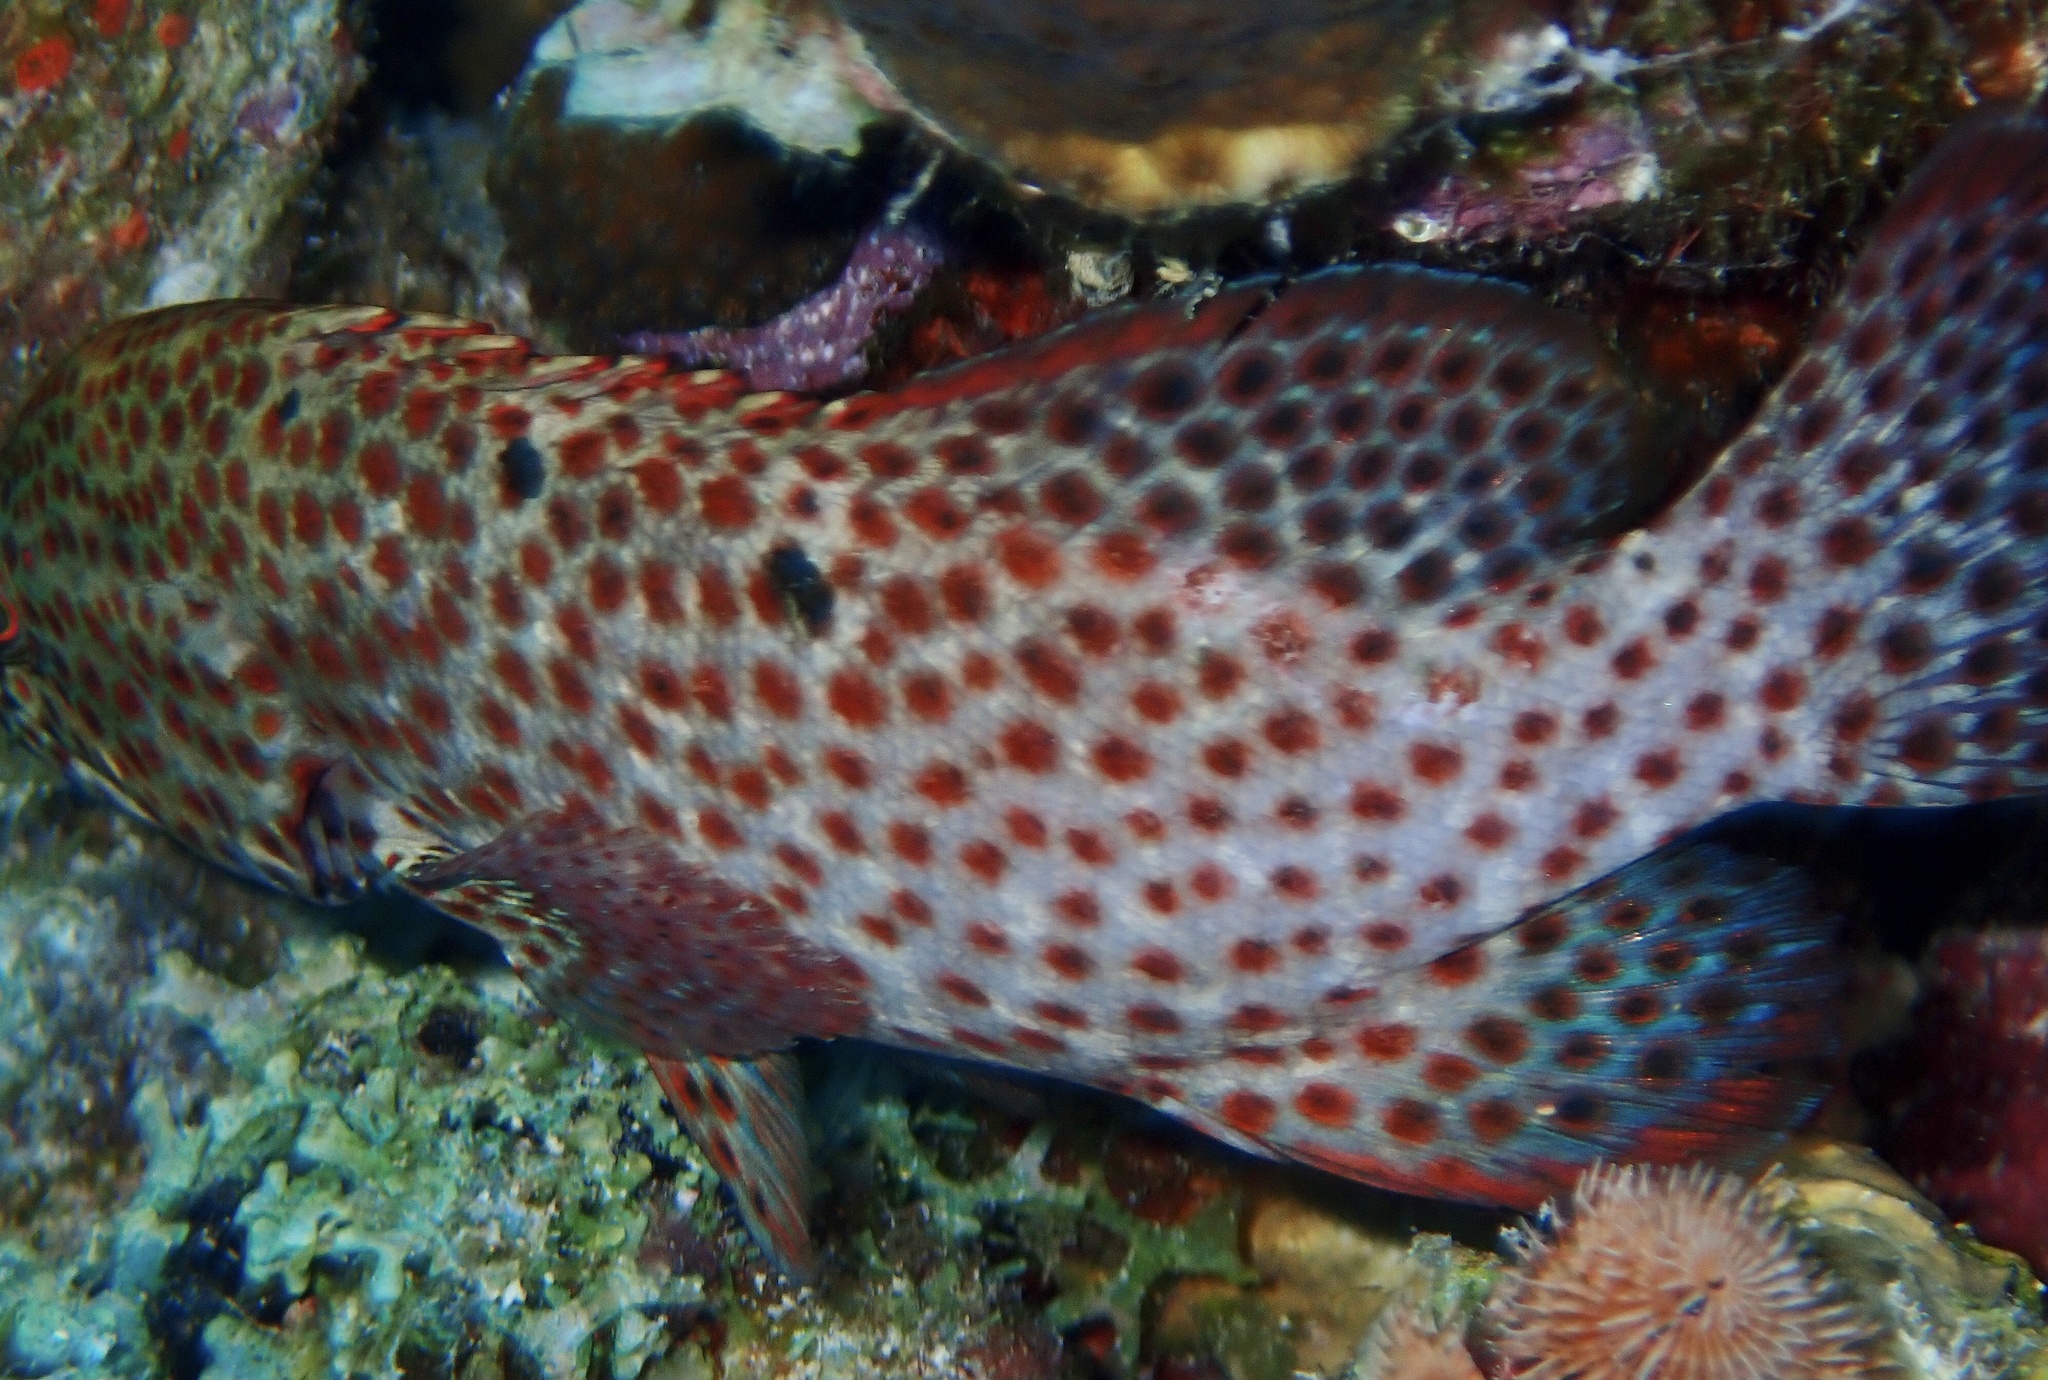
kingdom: Animalia
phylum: Chordata
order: Perciformes
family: Serranidae
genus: Cephalopholis
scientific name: Cephalopholis cruentata
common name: Graysby
